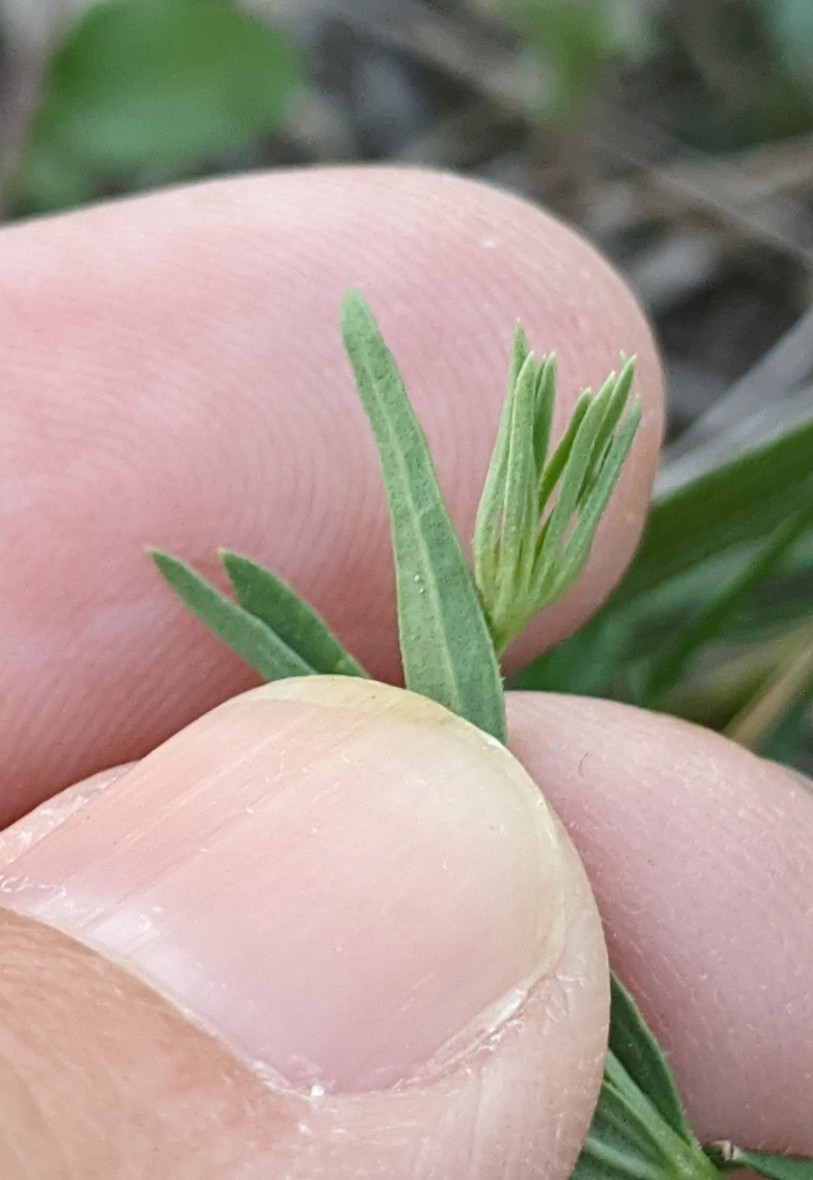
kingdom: Plantae
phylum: Tracheophyta
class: Magnoliopsida
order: Lamiales
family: Oleaceae
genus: Menodora
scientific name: Menodora heterophylla
